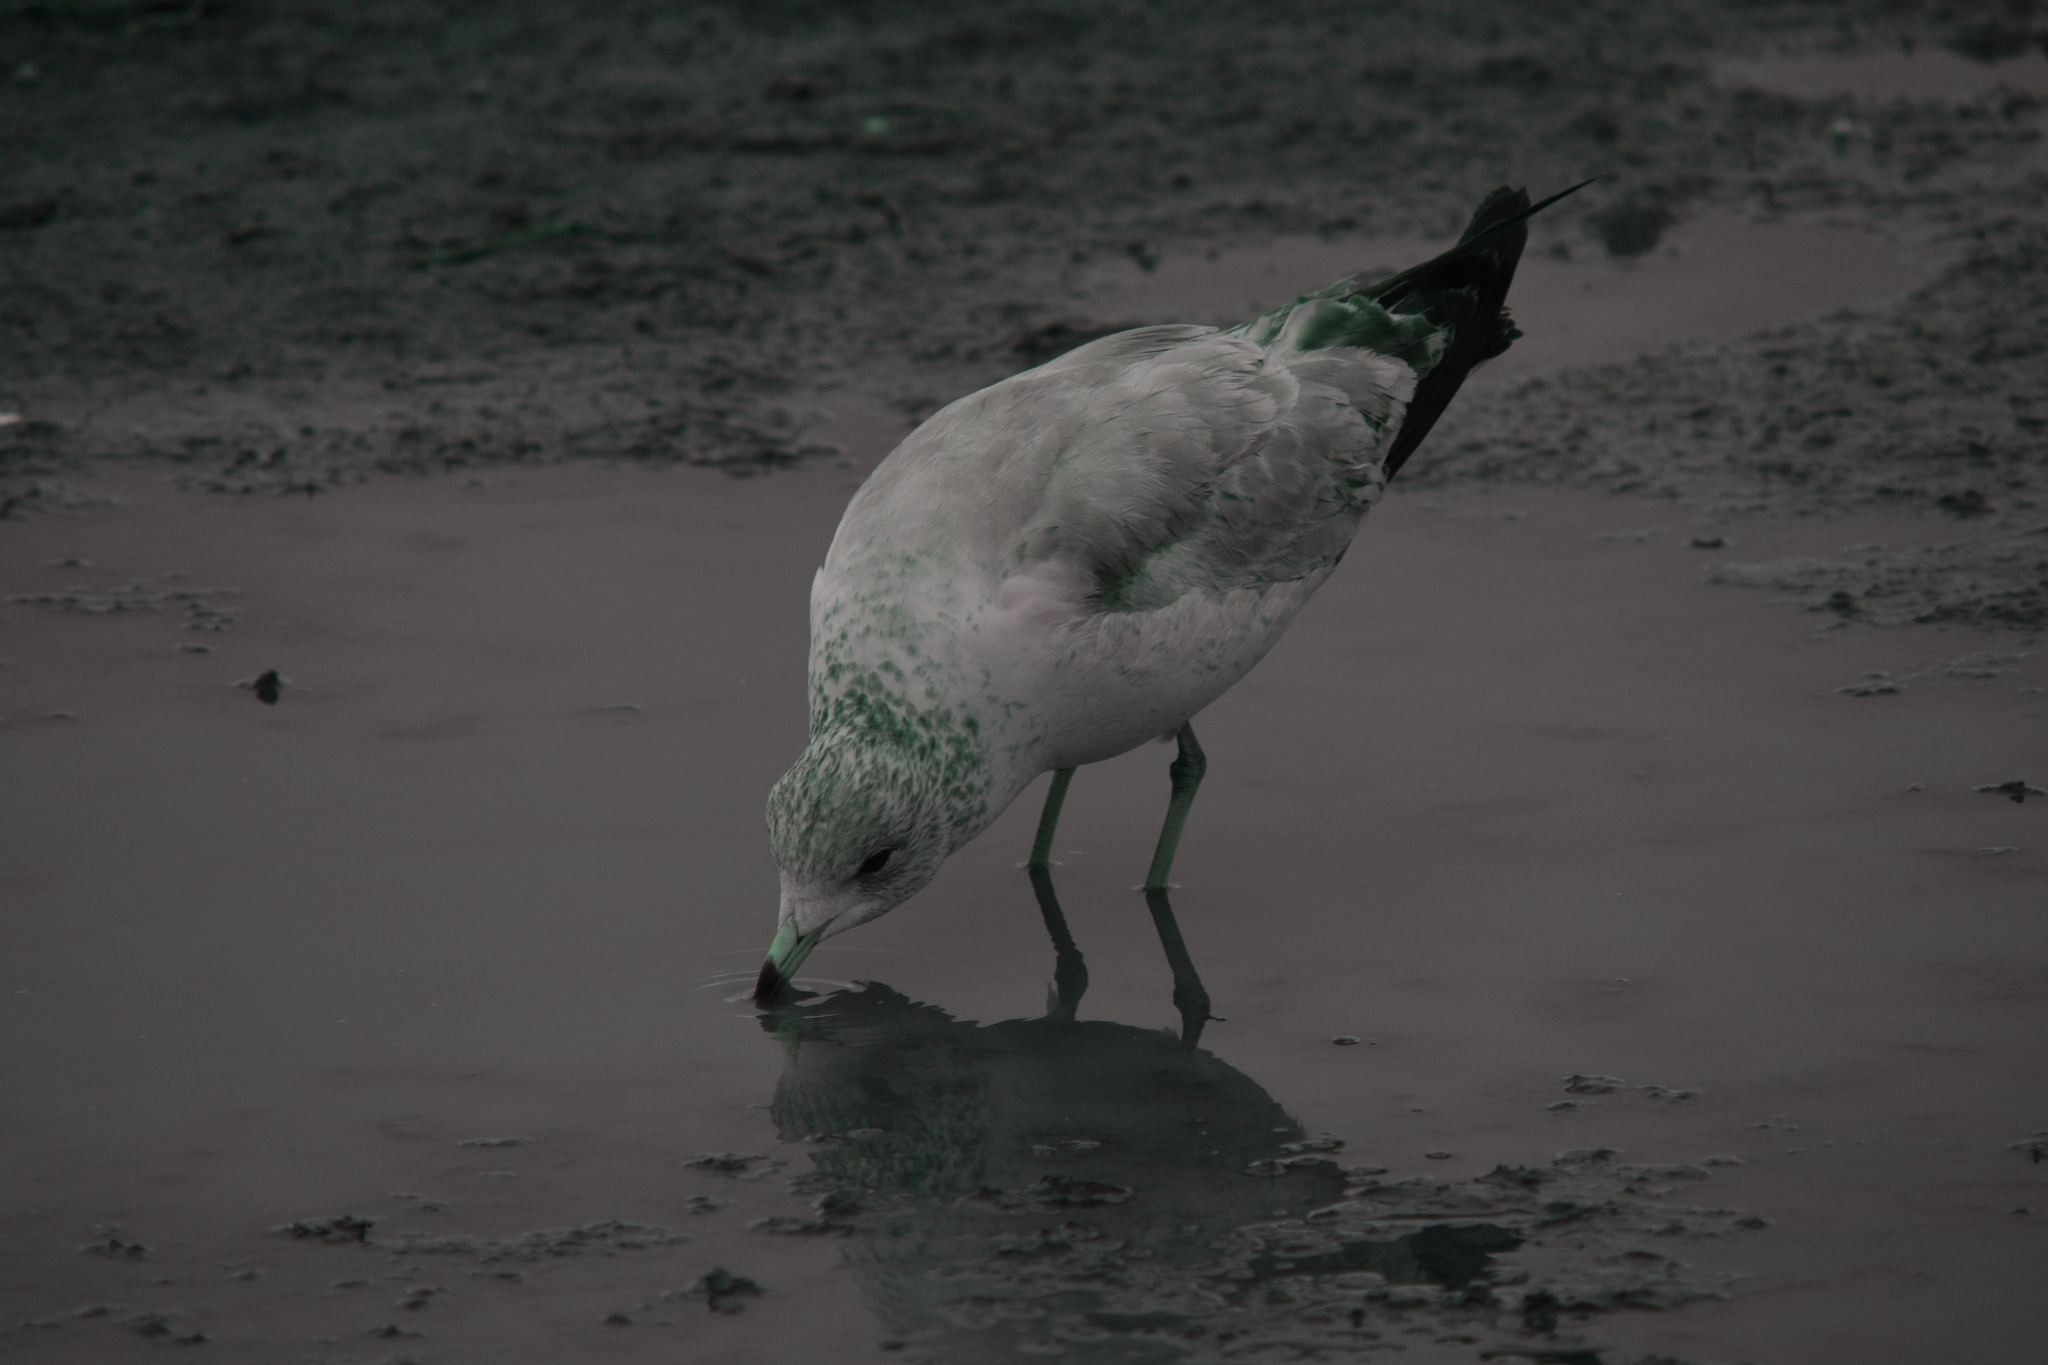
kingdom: Animalia
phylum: Chordata
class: Aves
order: Charadriiformes
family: Laridae
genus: Larus
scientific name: Larus delawarensis
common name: Ring-billed gull
